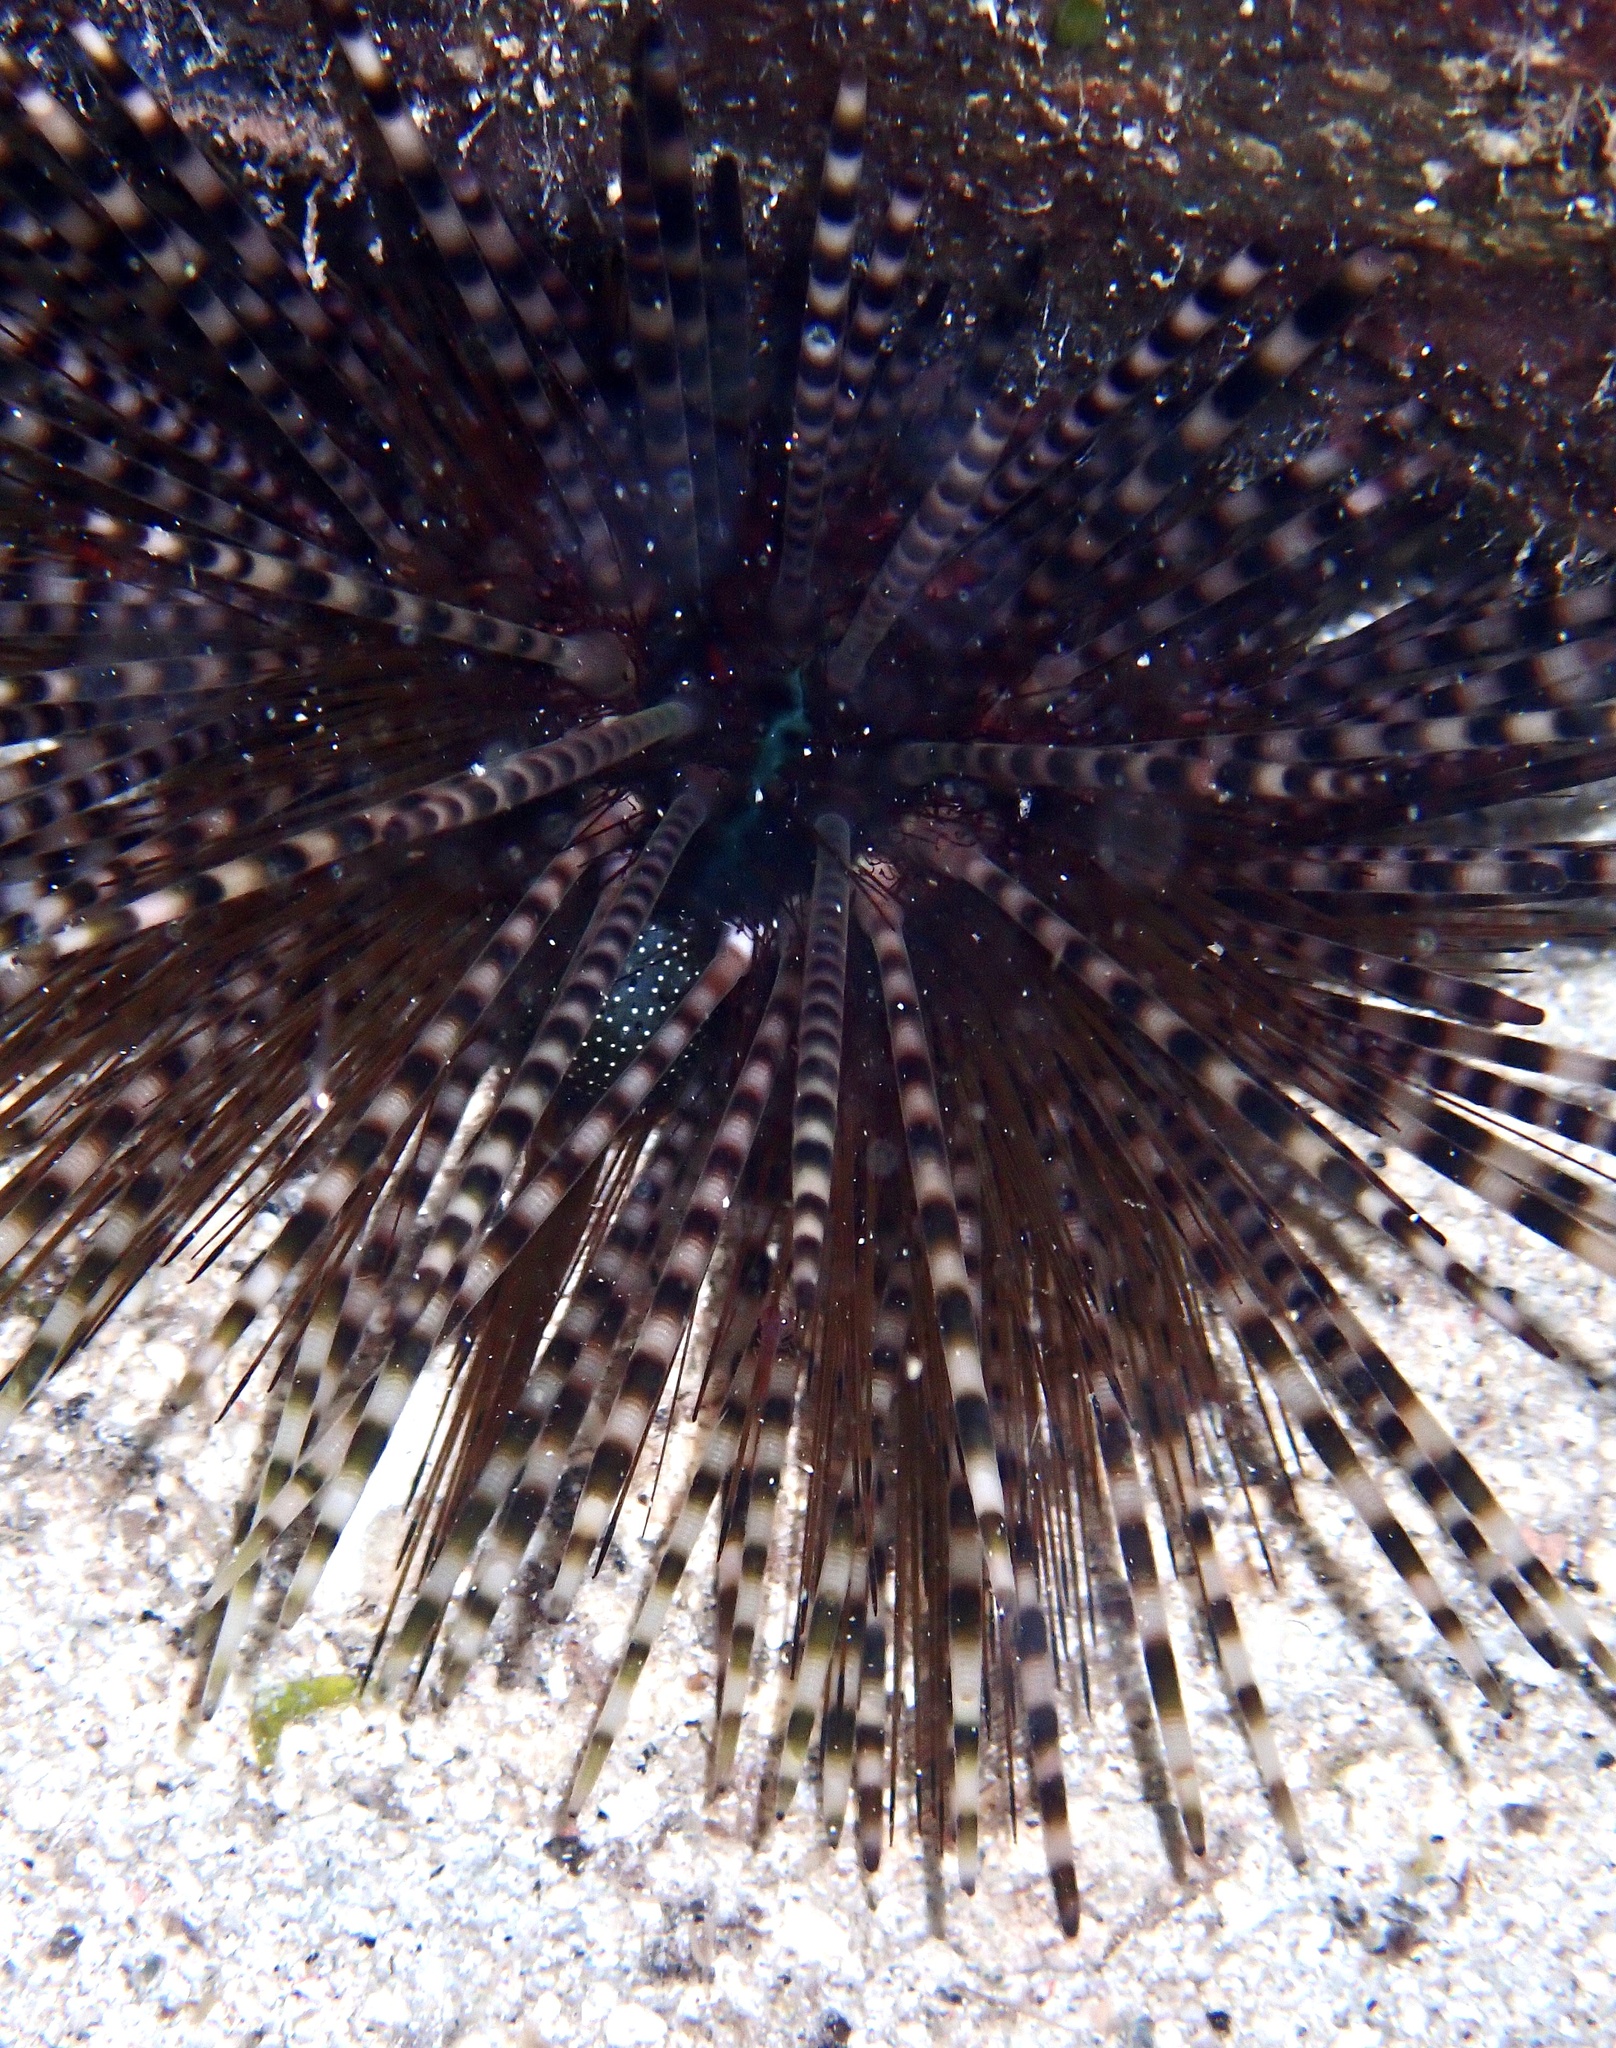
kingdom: Animalia
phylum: Echinodermata
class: Echinoidea
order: Diadematoida
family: Diadematidae
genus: Echinothrix
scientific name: Echinothrix calamaris
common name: Banded sea urchin
